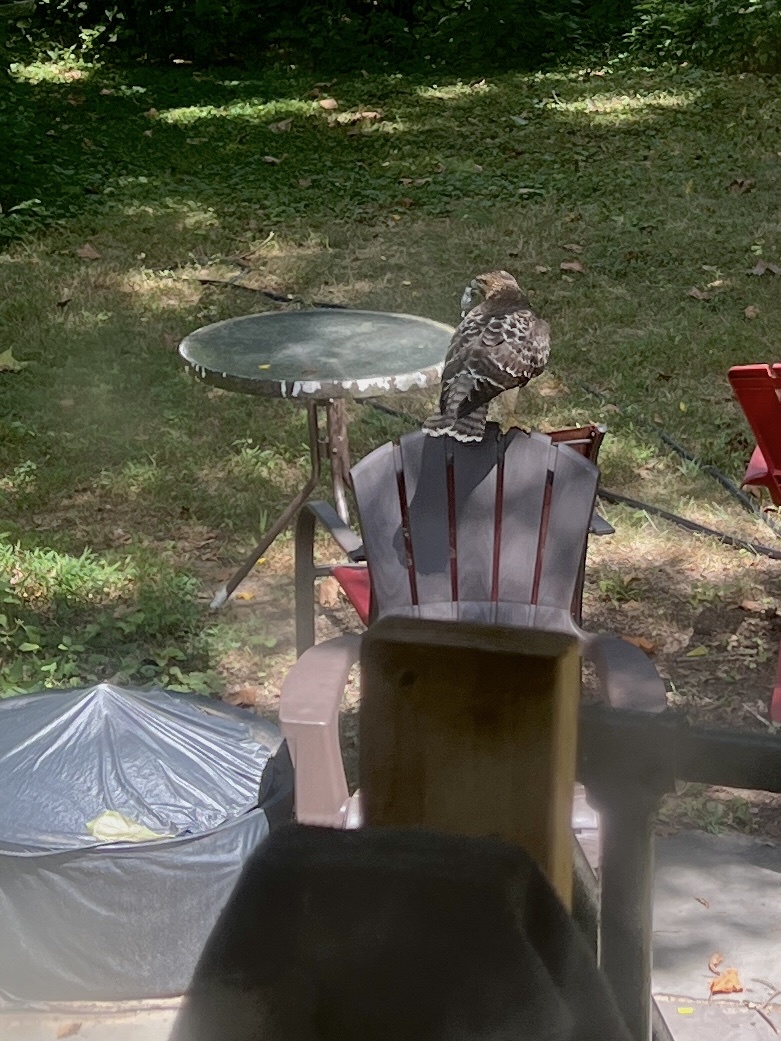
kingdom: Animalia
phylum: Chordata
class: Aves
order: Accipitriformes
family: Accipitridae
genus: Buteo
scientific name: Buteo jamaicensis
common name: Red-tailed hawk
